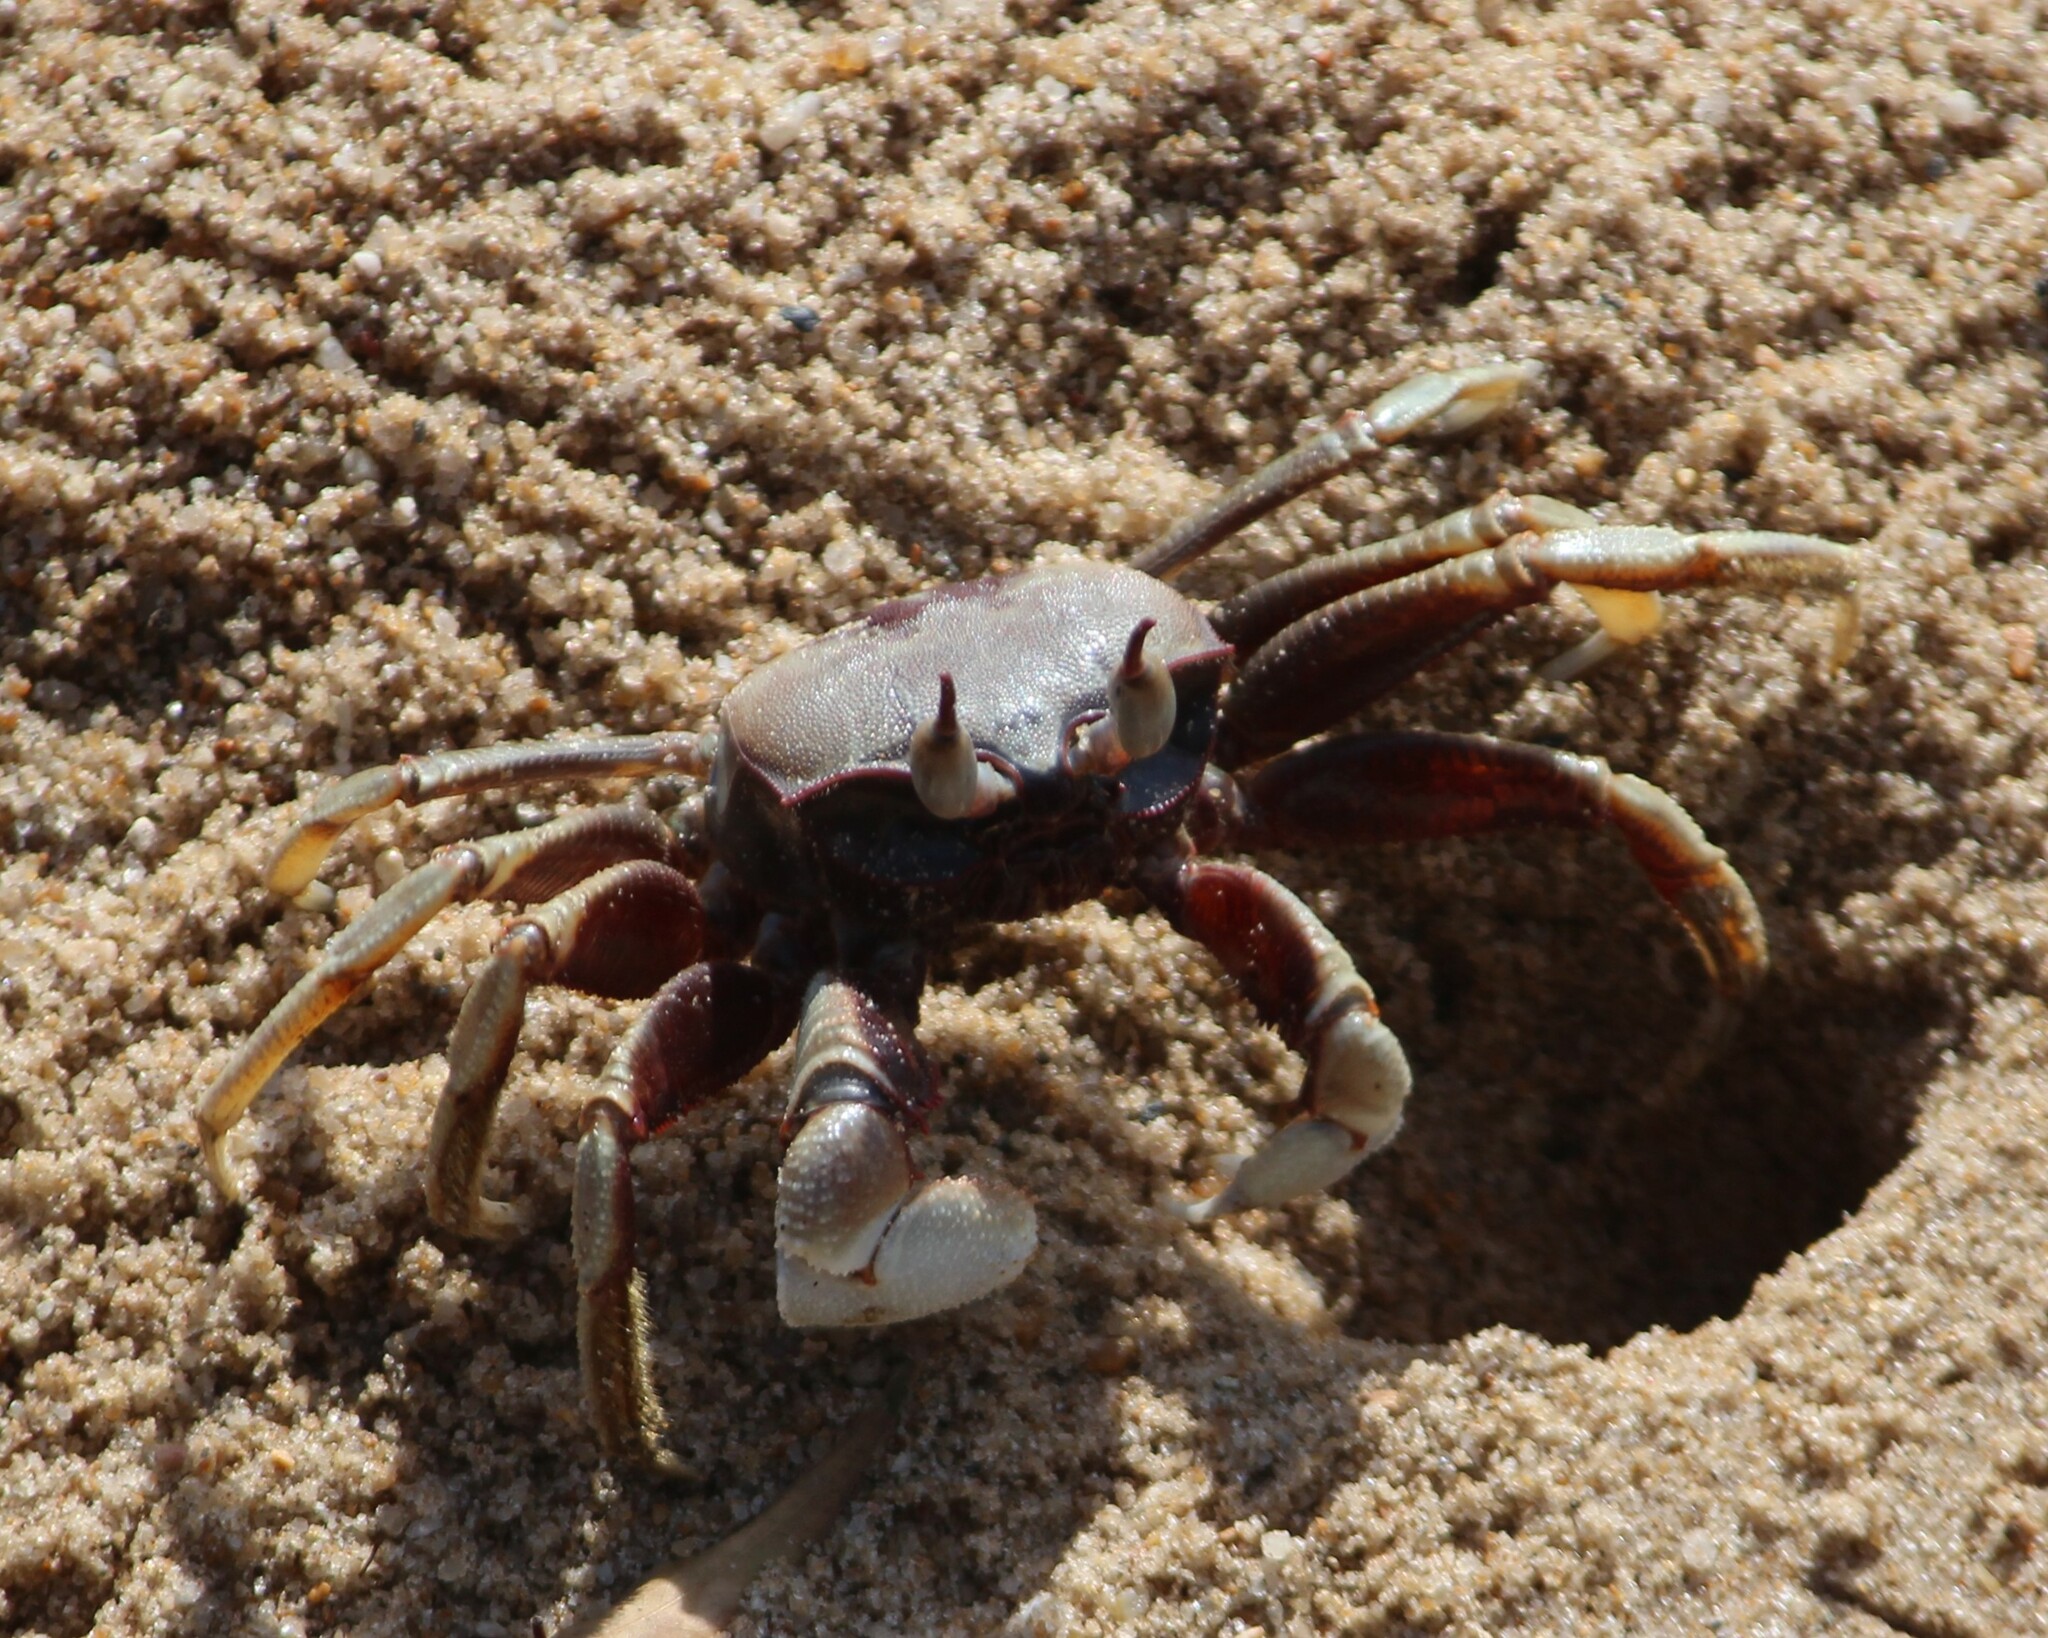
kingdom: Animalia
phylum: Arthropoda
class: Malacostraca
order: Decapoda
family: Ocypodidae
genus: Ocypode
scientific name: Ocypode ceratophthalmus
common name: Indo-pacific ghost crab
